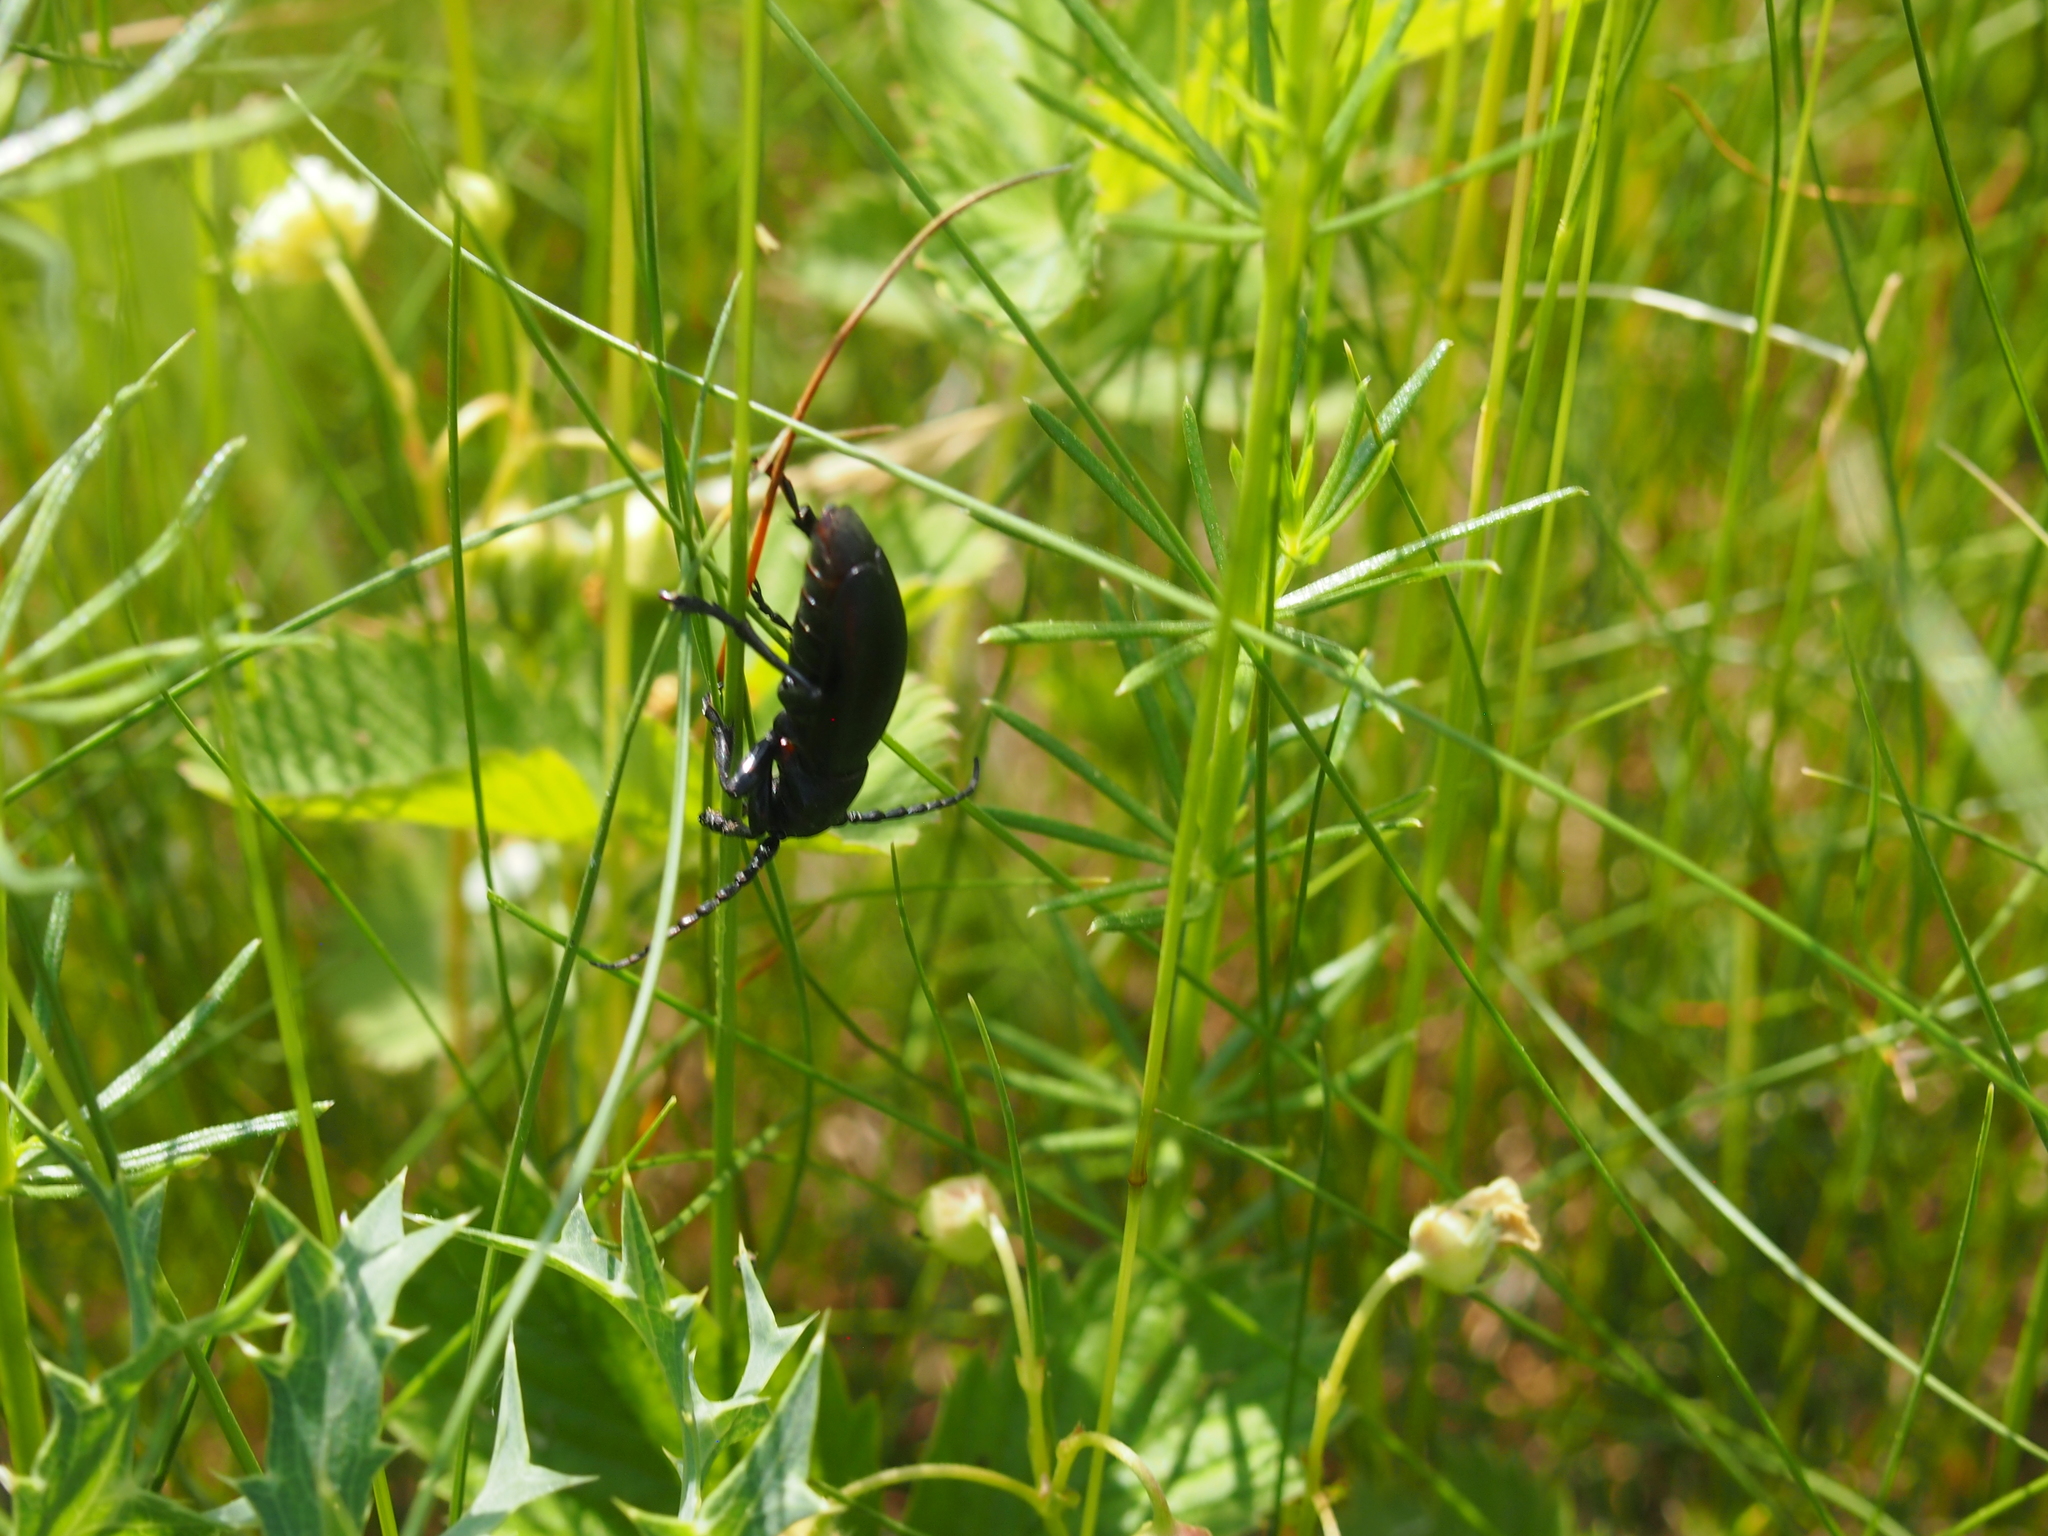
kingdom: Animalia
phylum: Arthropoda
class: Insecta
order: Coleoptera
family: Cerambycidae
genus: Dorcadion
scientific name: Dorcadion aethiops
